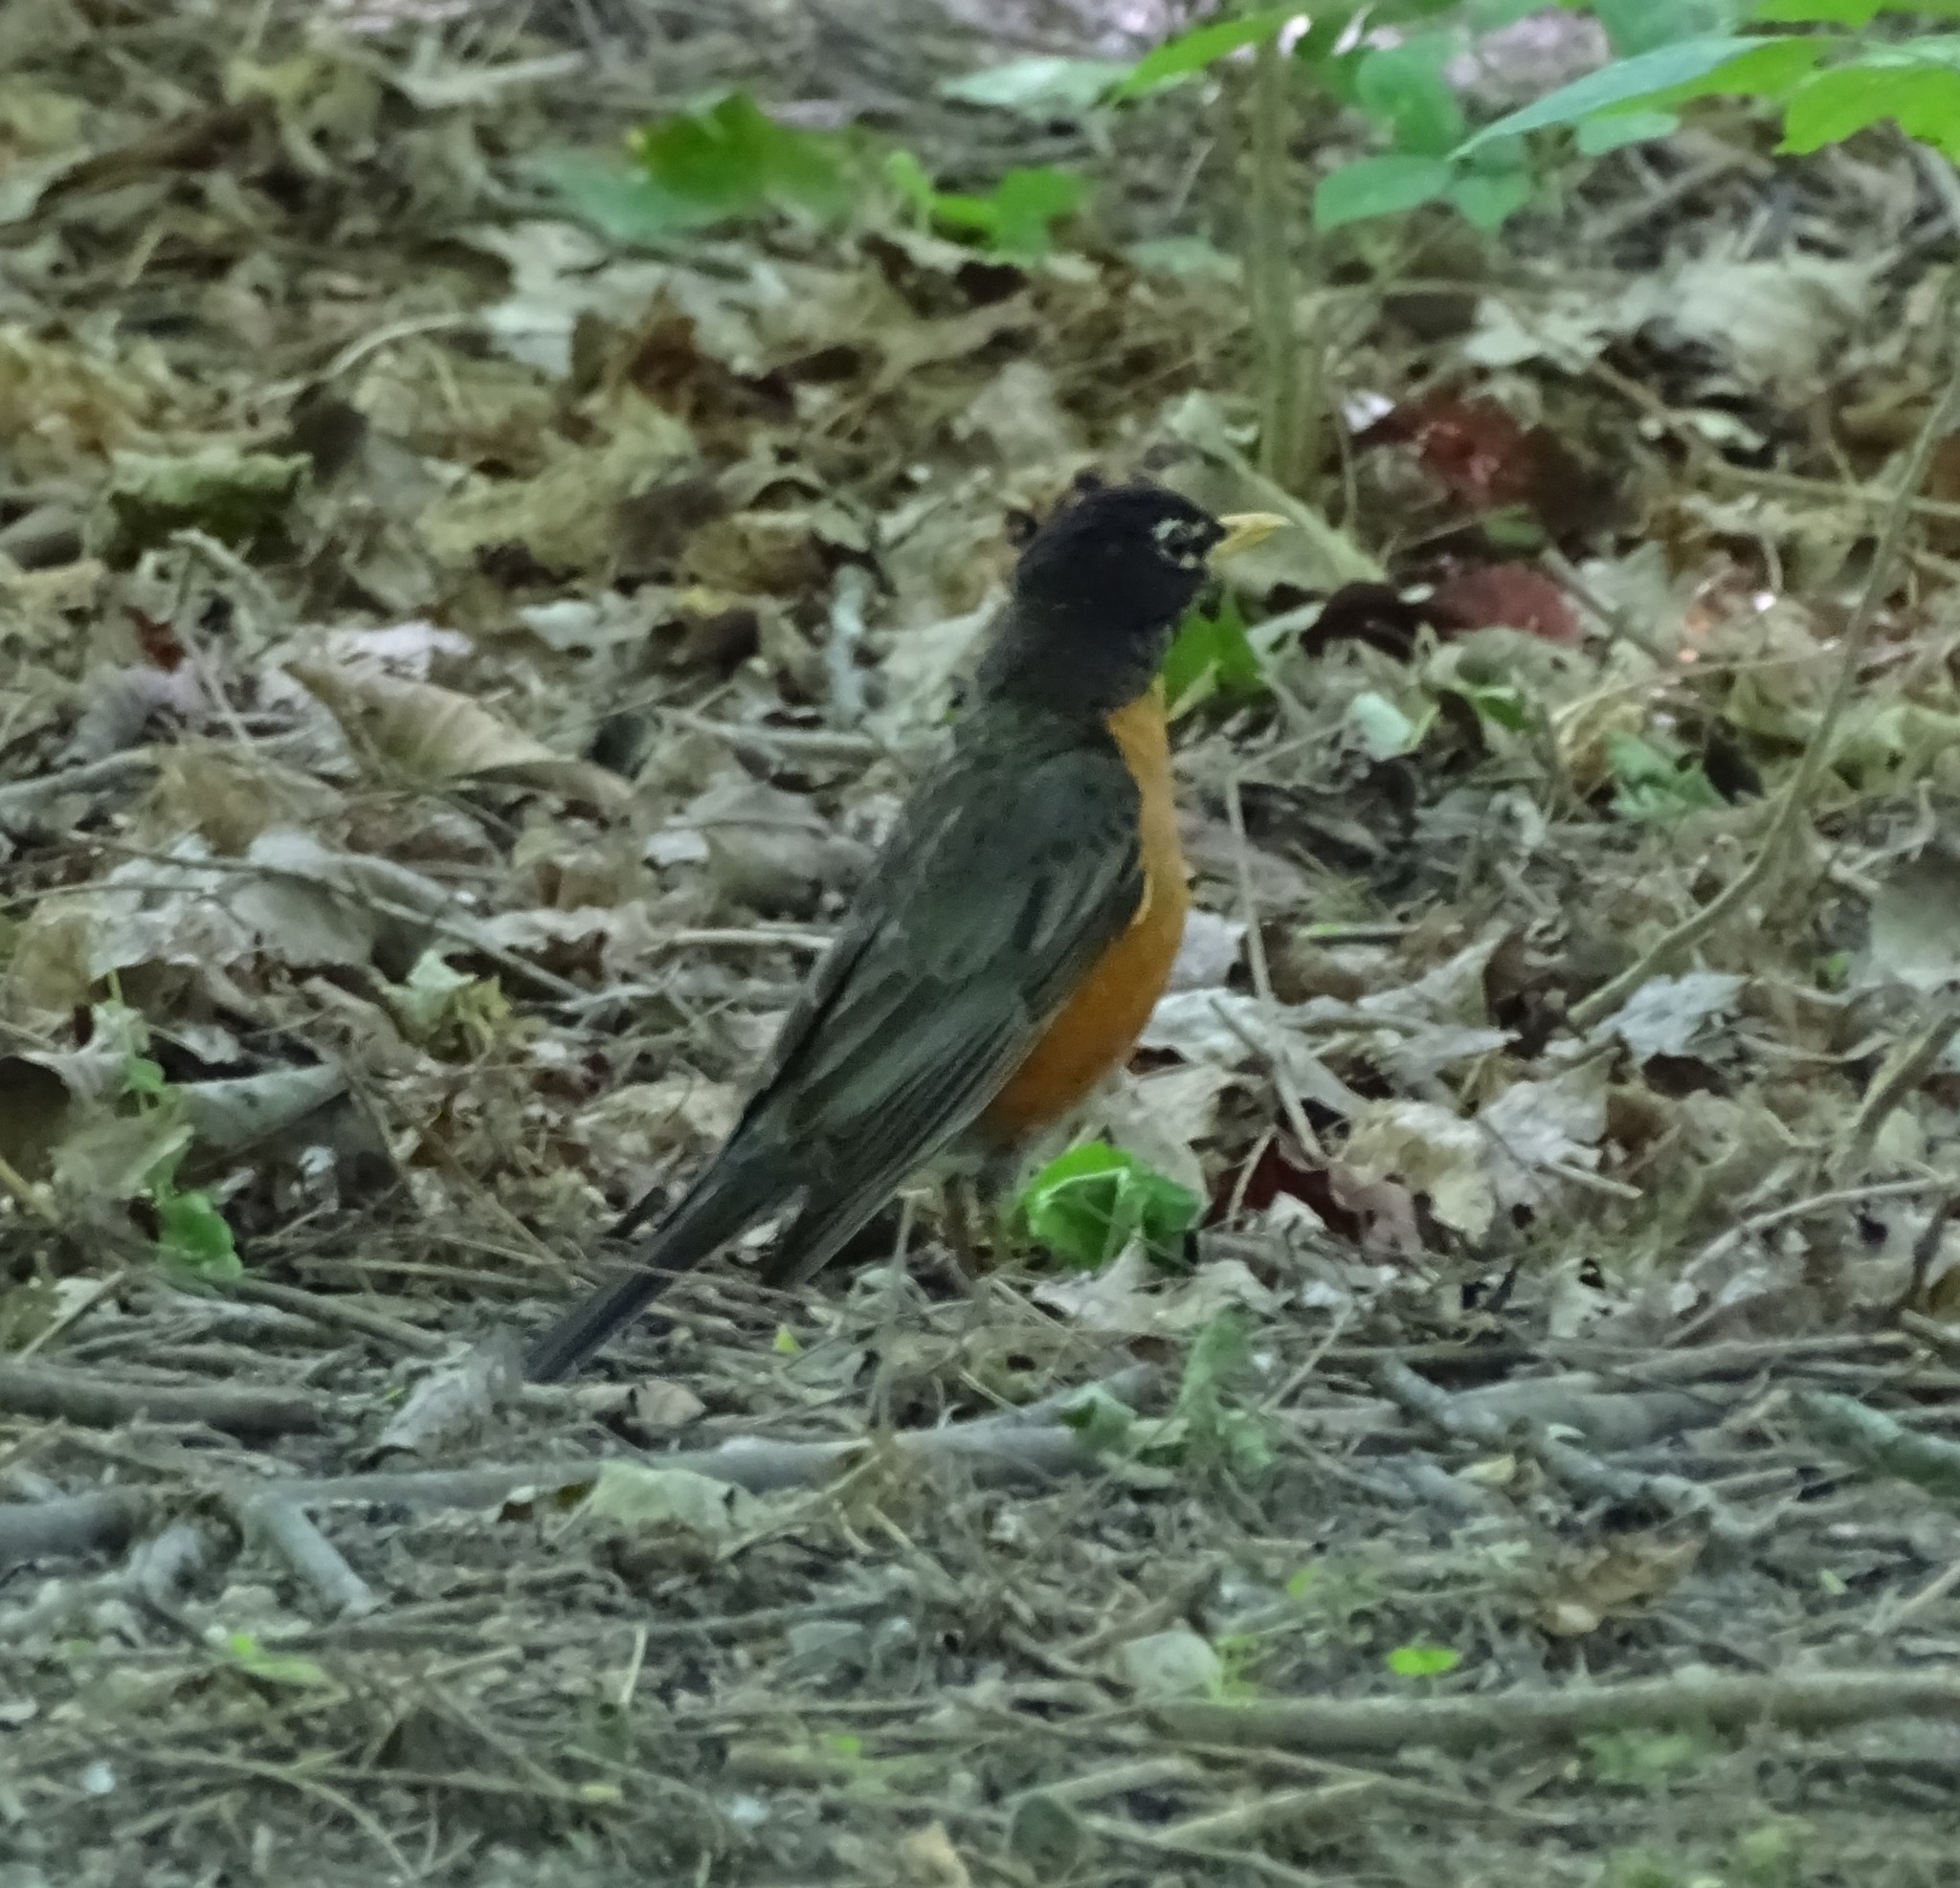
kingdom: Animalia
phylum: Chordata
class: Aves
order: Passeriformes
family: Turdidae
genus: Turdus
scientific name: Turdus migratorius
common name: American robin
